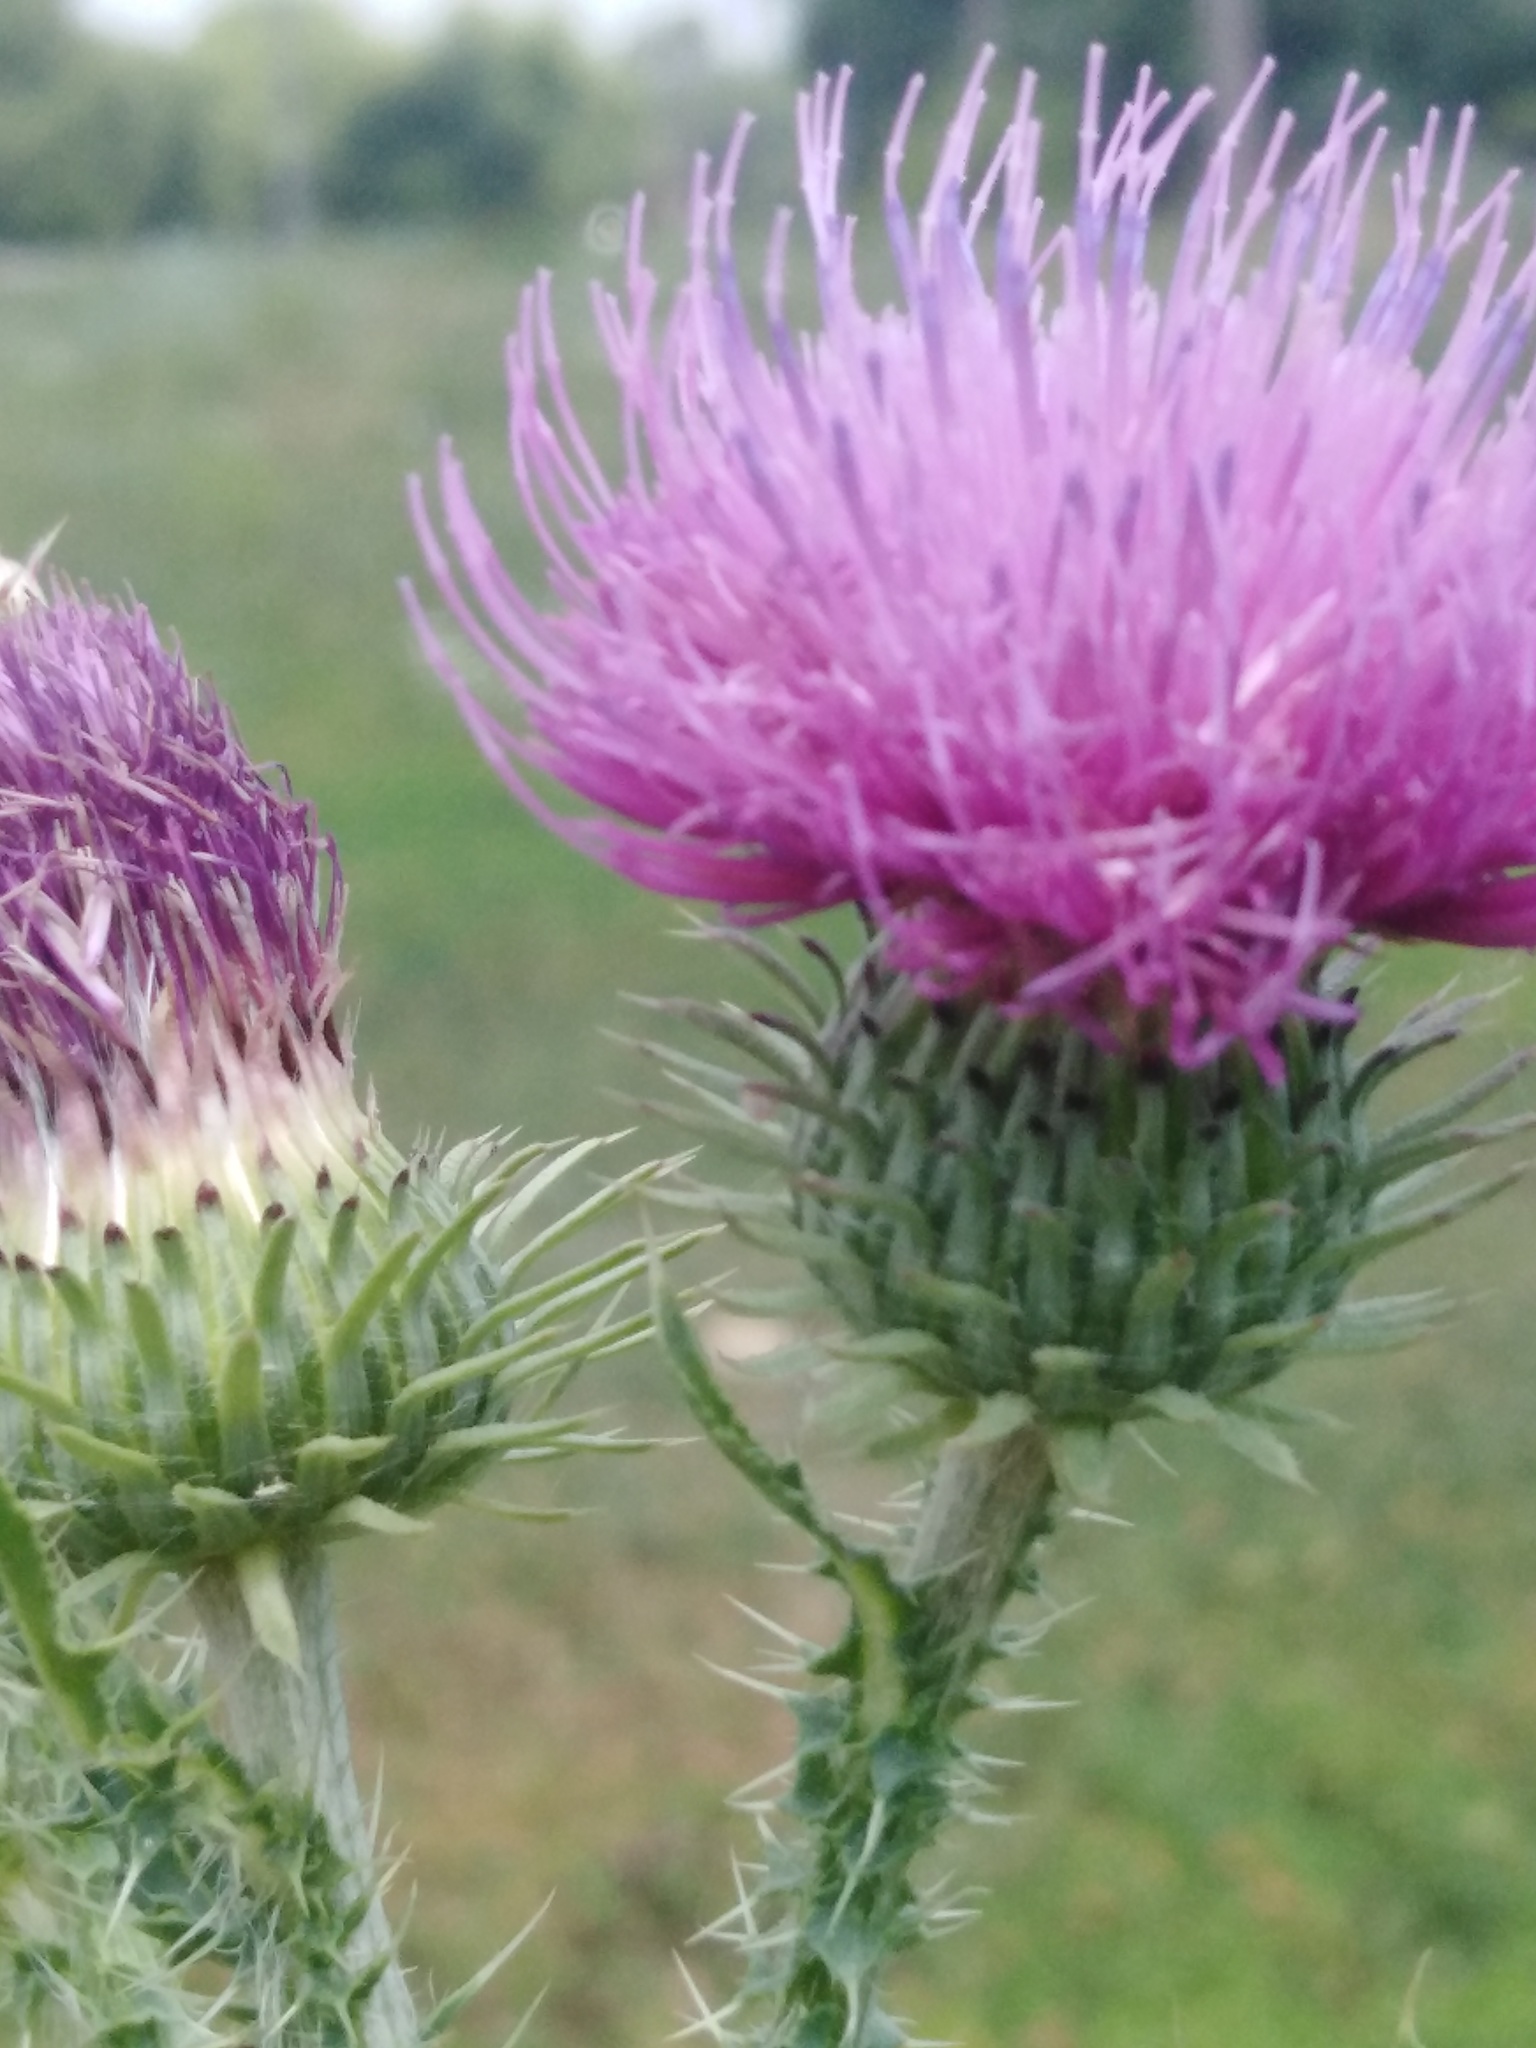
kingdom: Plantae
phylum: Tracheophyta
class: Magnoliopsida
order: Asterales
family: Asteraceae
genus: Carduus
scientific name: Carduus acanthoides
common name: Plumeless thistle
